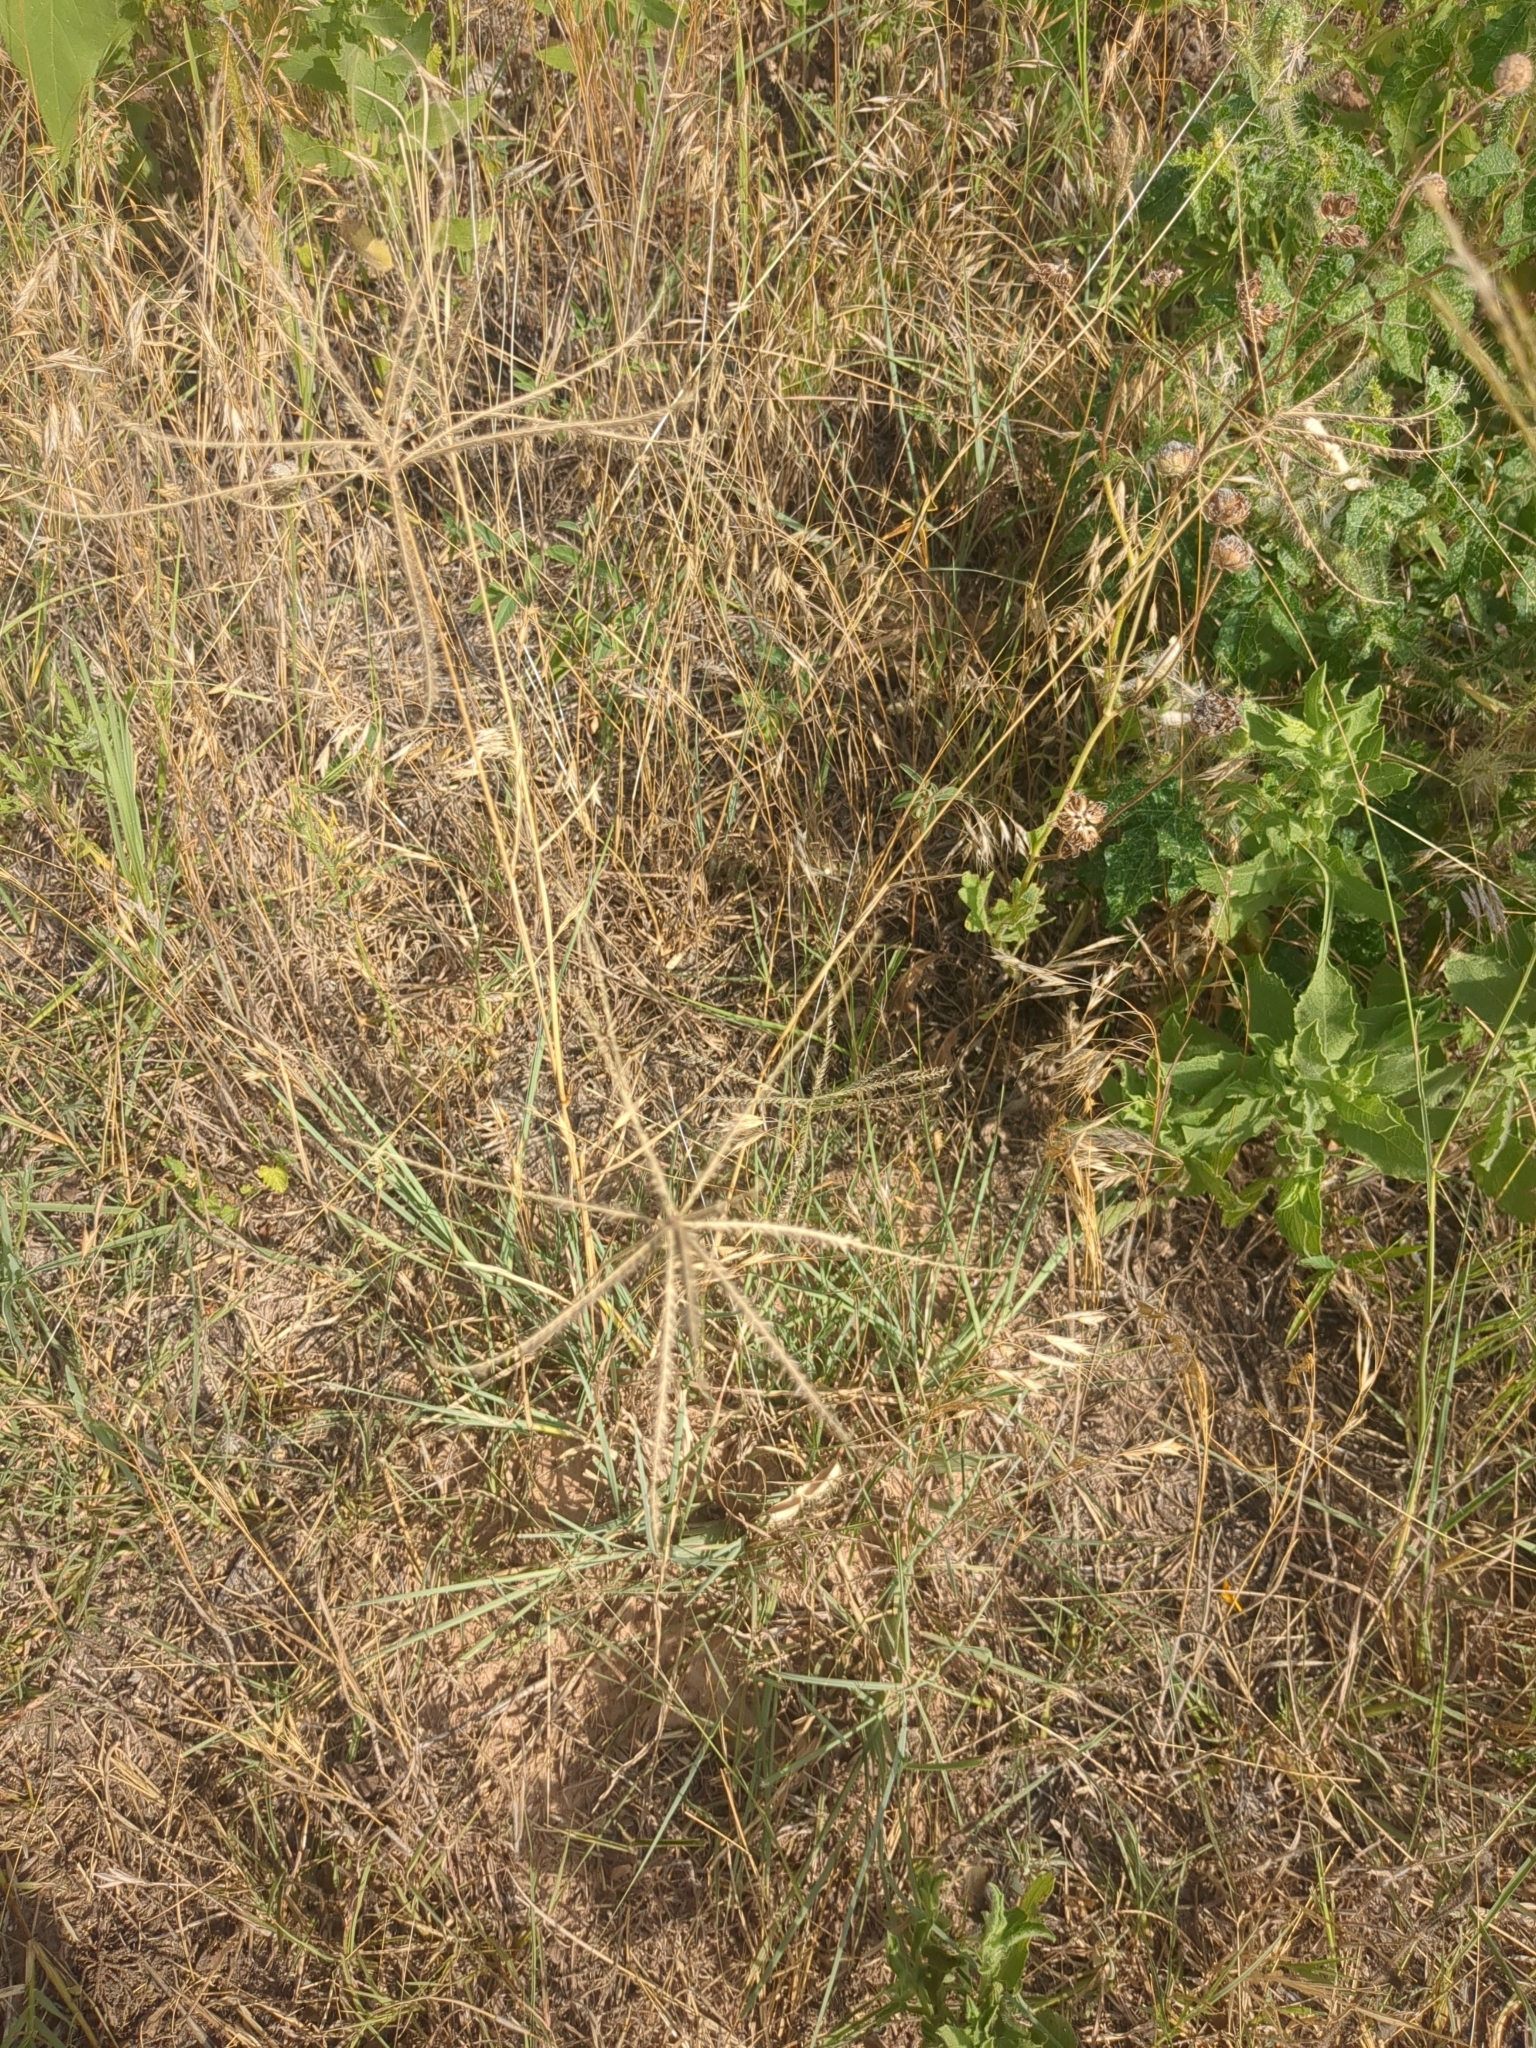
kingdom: Plantae
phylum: Tracheophyta
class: Liliopsida
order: Poales
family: Poaceae
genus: Chloris
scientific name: Chloris subdolichostachya
